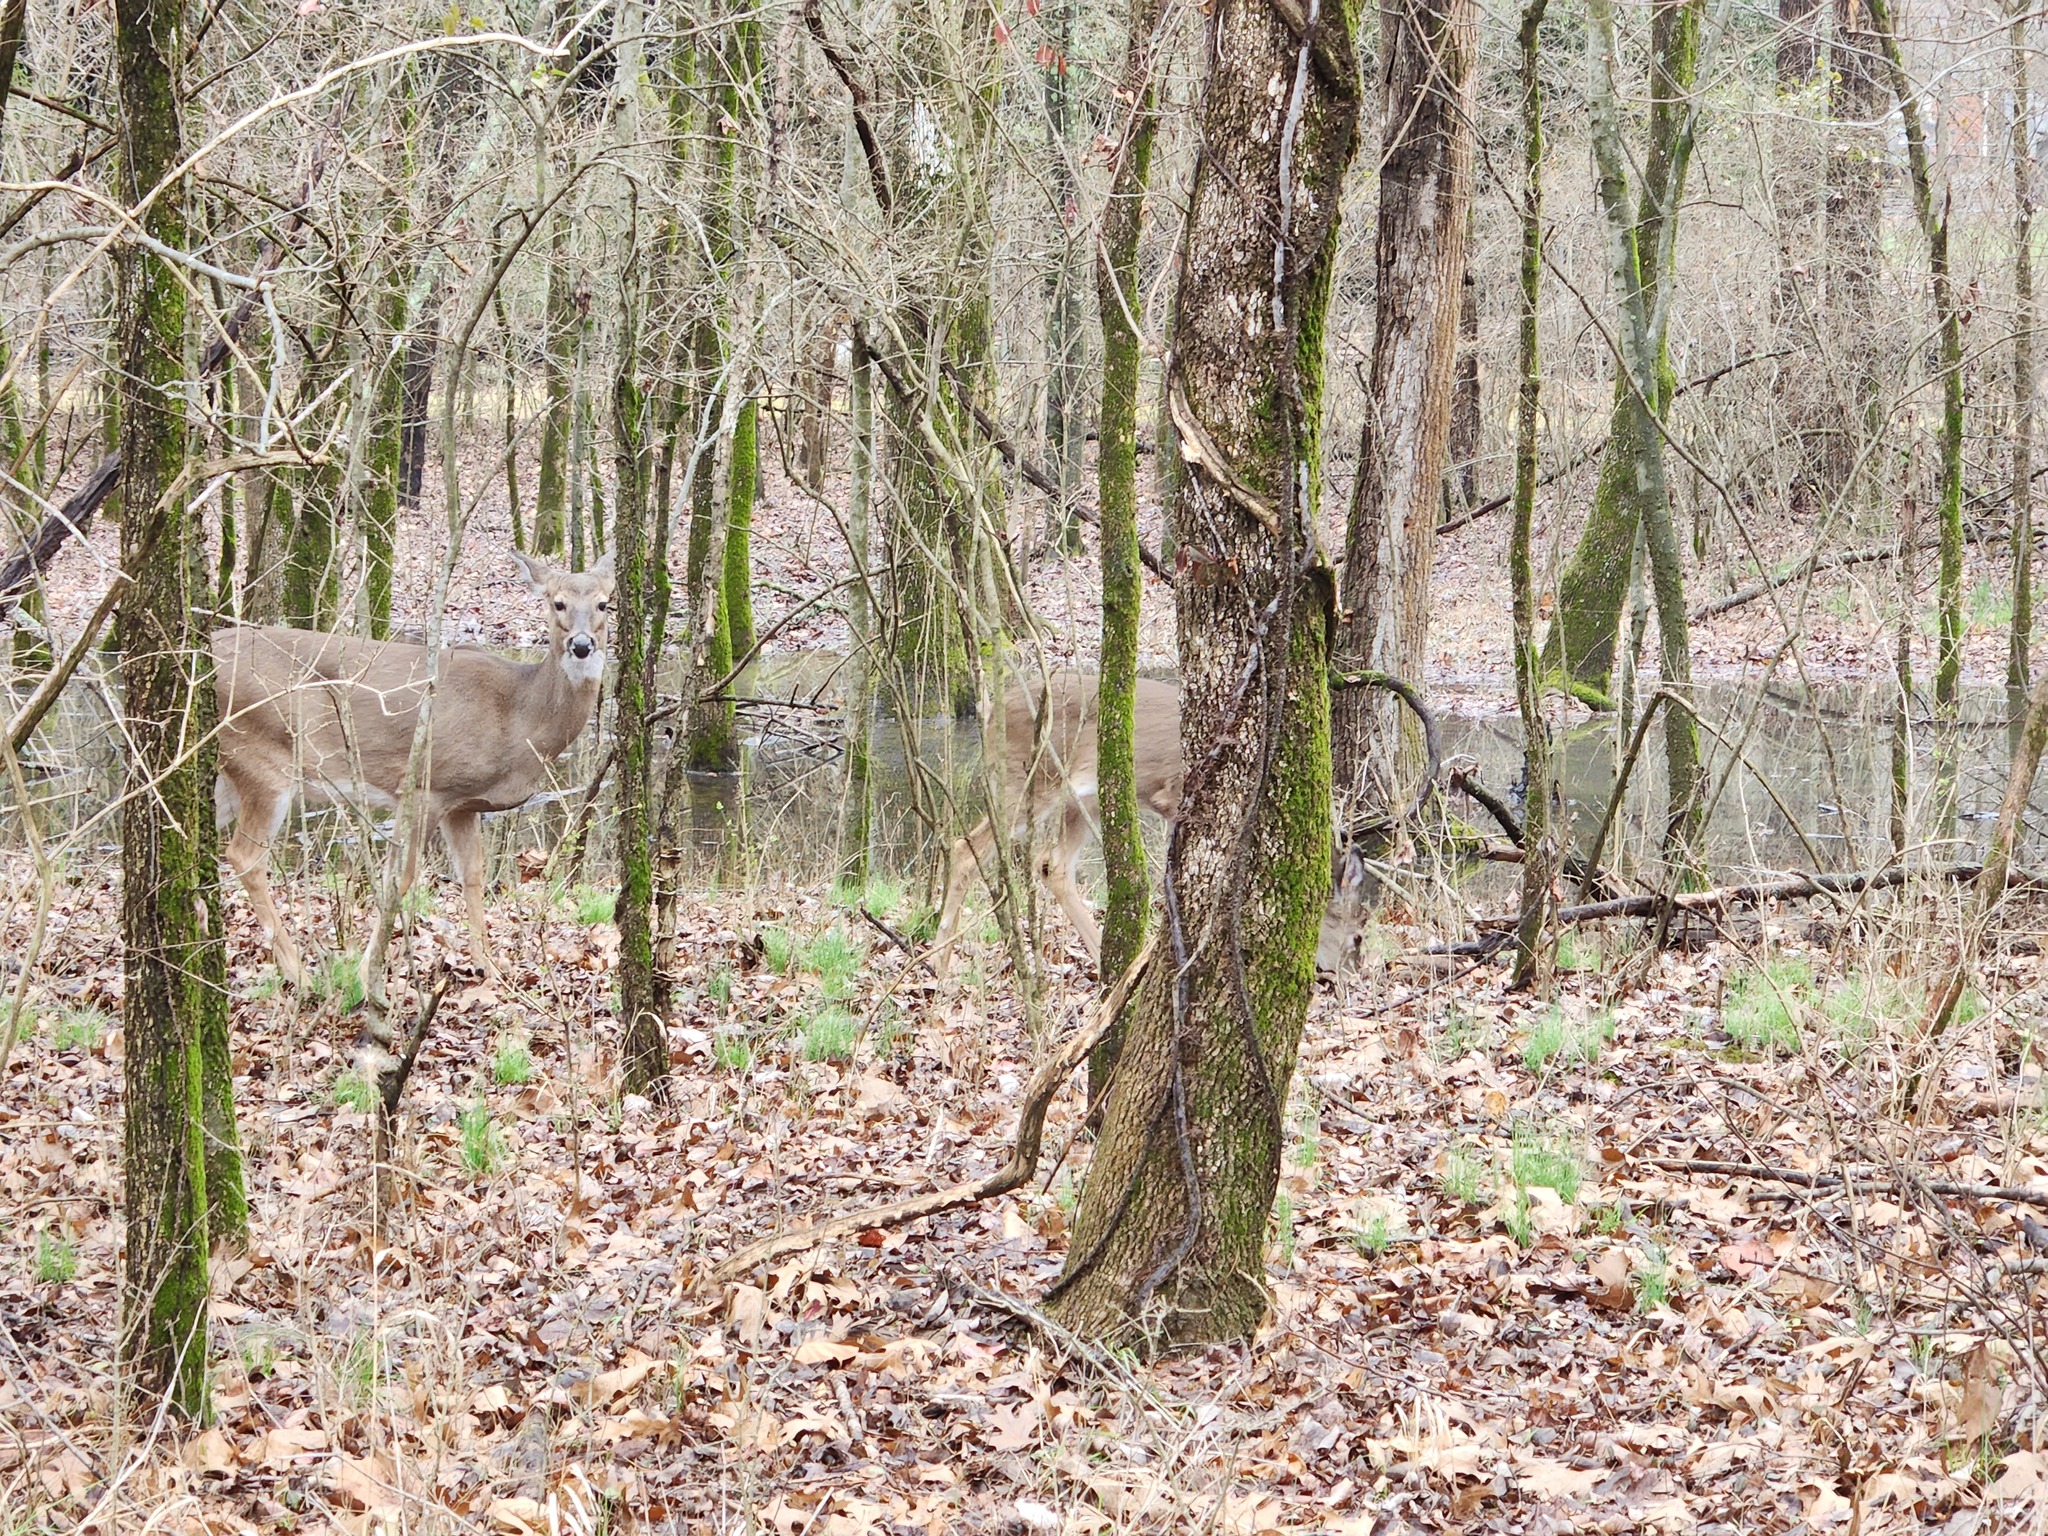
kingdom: Animalia
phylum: Chordata
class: Mammalia
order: Artiodactyla
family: Cervidae
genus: Odocoileus
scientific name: Odocoileus virginianus
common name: White-tailed deer
